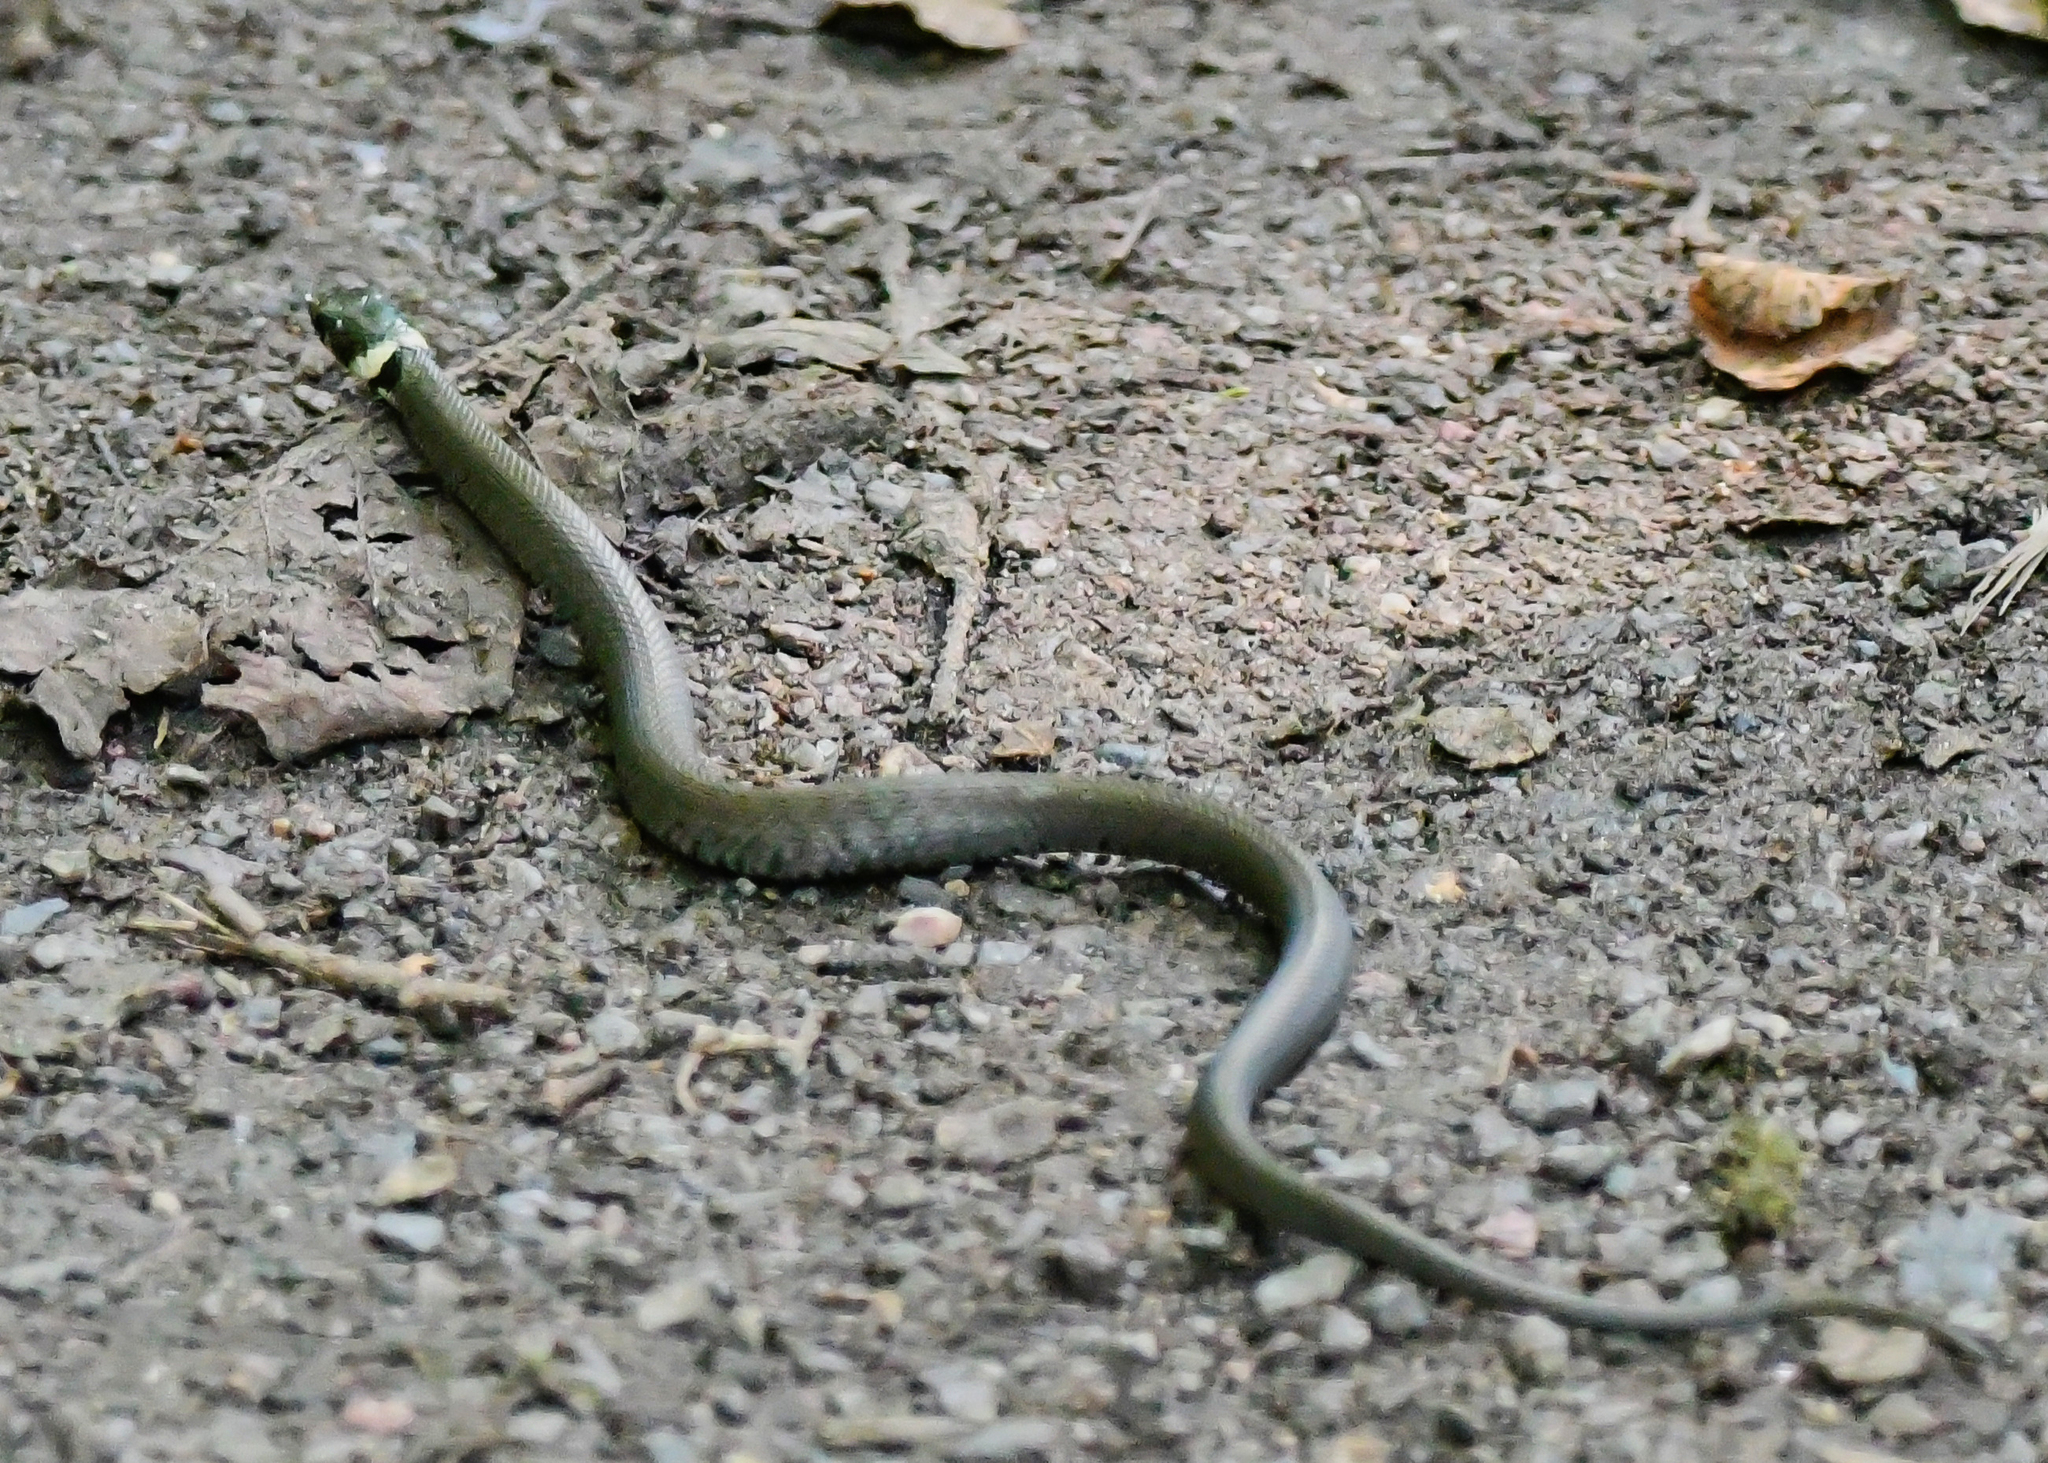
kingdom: Animalia
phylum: Chordata
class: Squamata
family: Colubridae
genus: Natrix
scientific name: Natrix helvetica
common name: Banded grass snake
